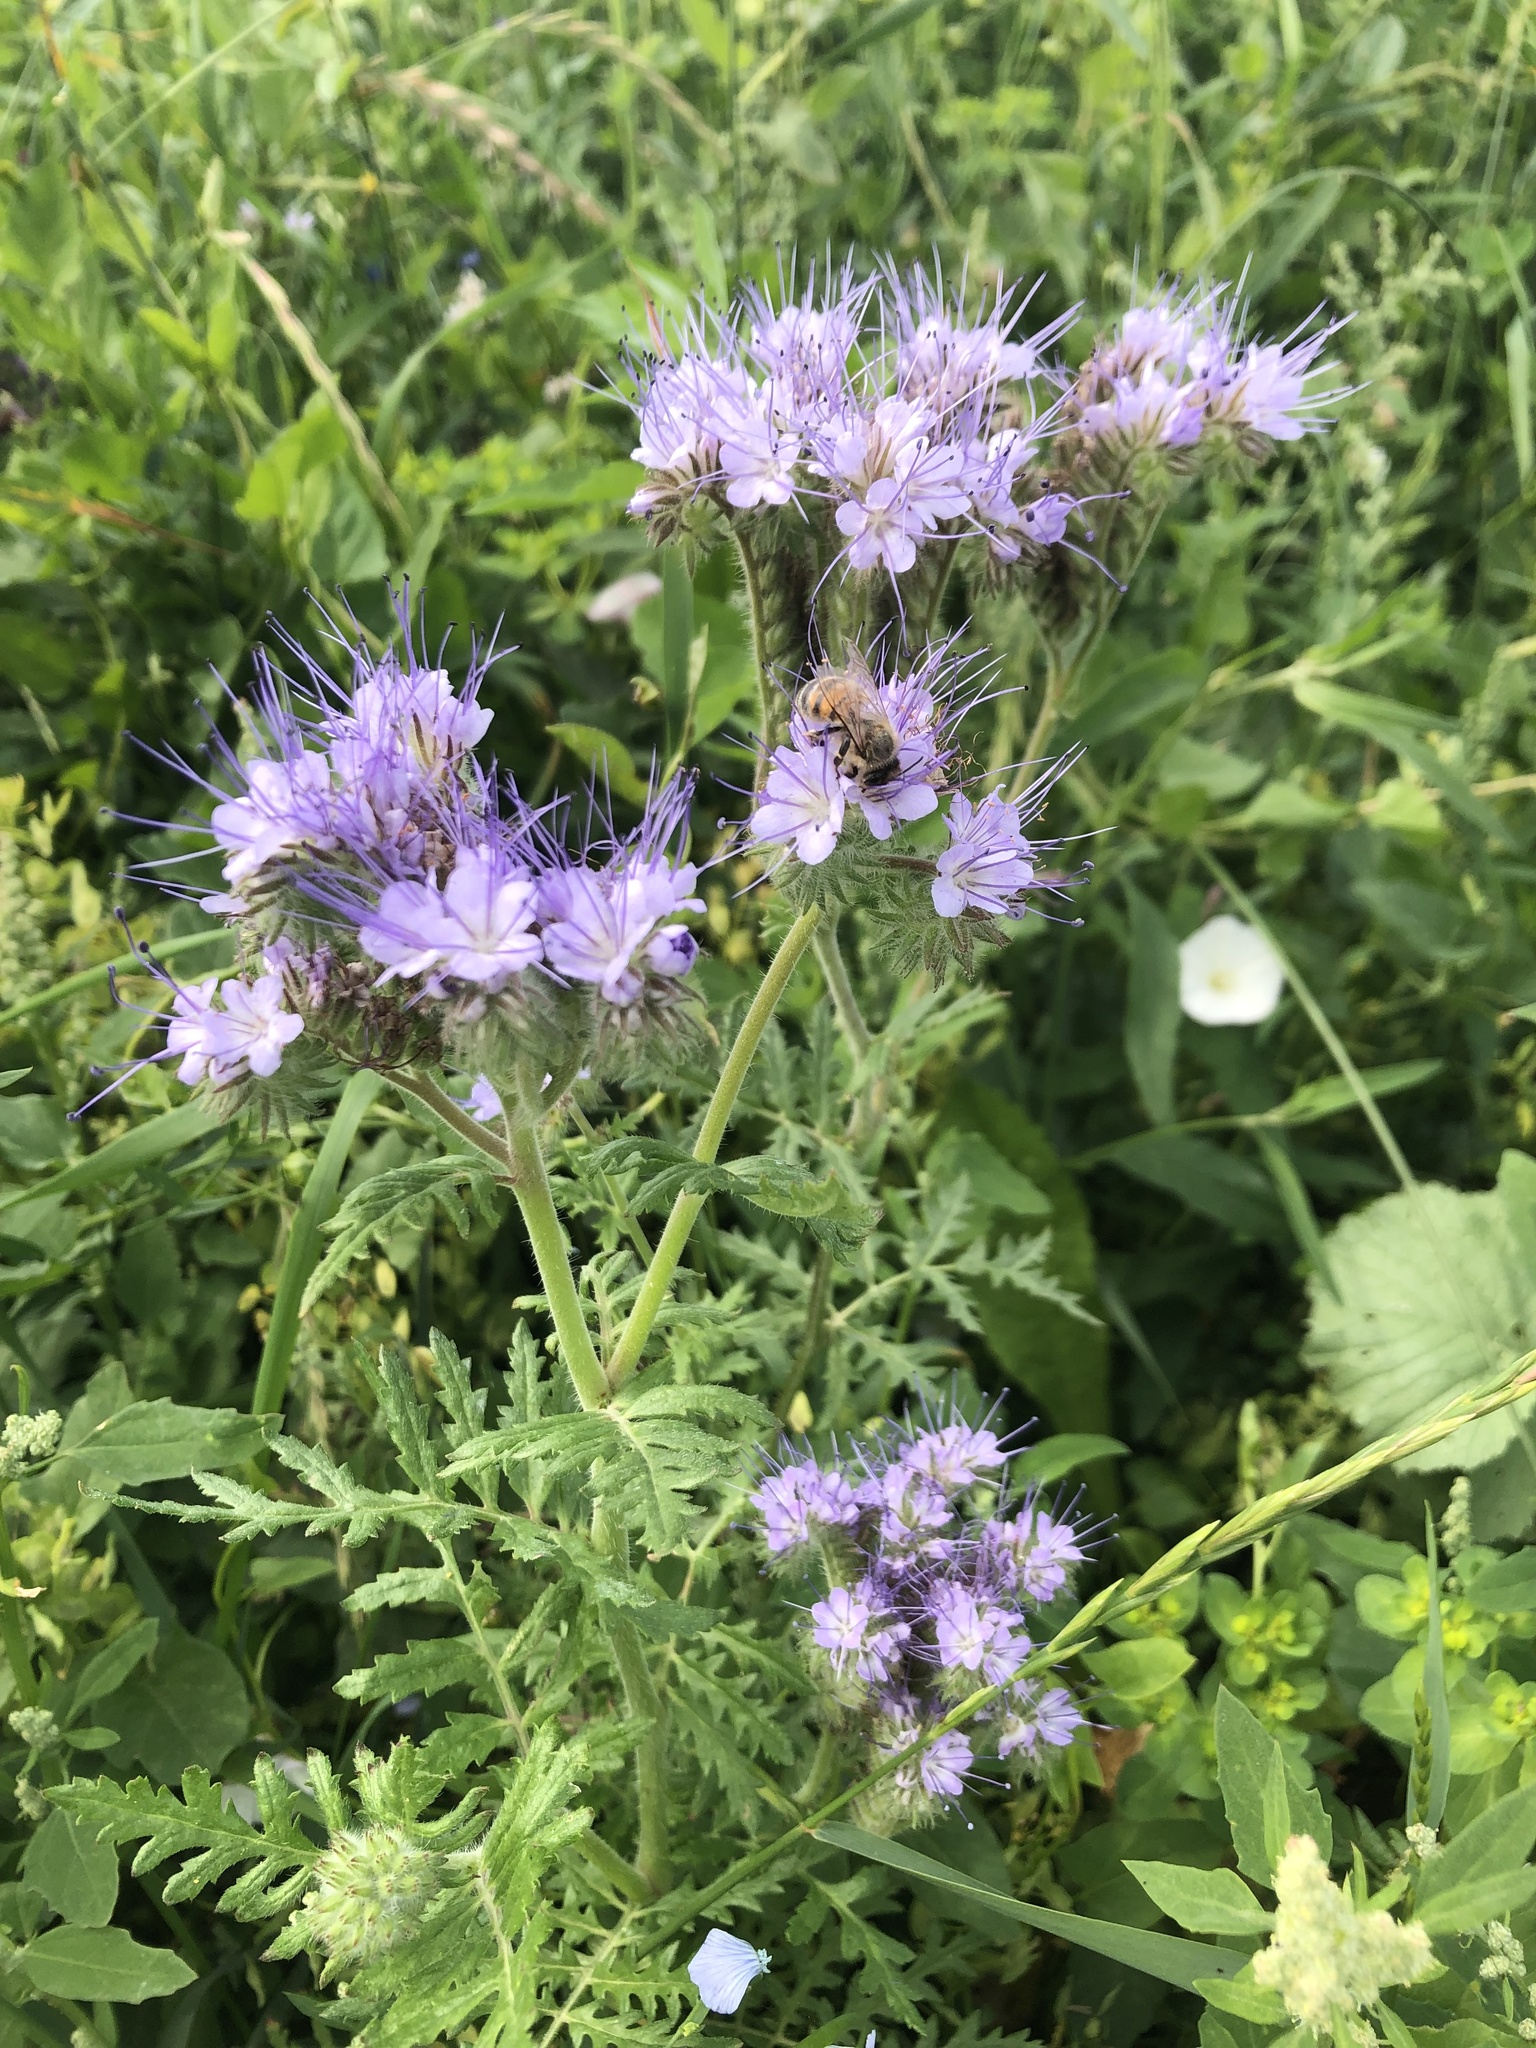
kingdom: Plantae
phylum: Tracheophyta
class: Magnoliopsida
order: Boraginales
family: Hydrophyllaceae
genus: Phacelia
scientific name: Phacelia tanacetifolia
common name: Phacelia
